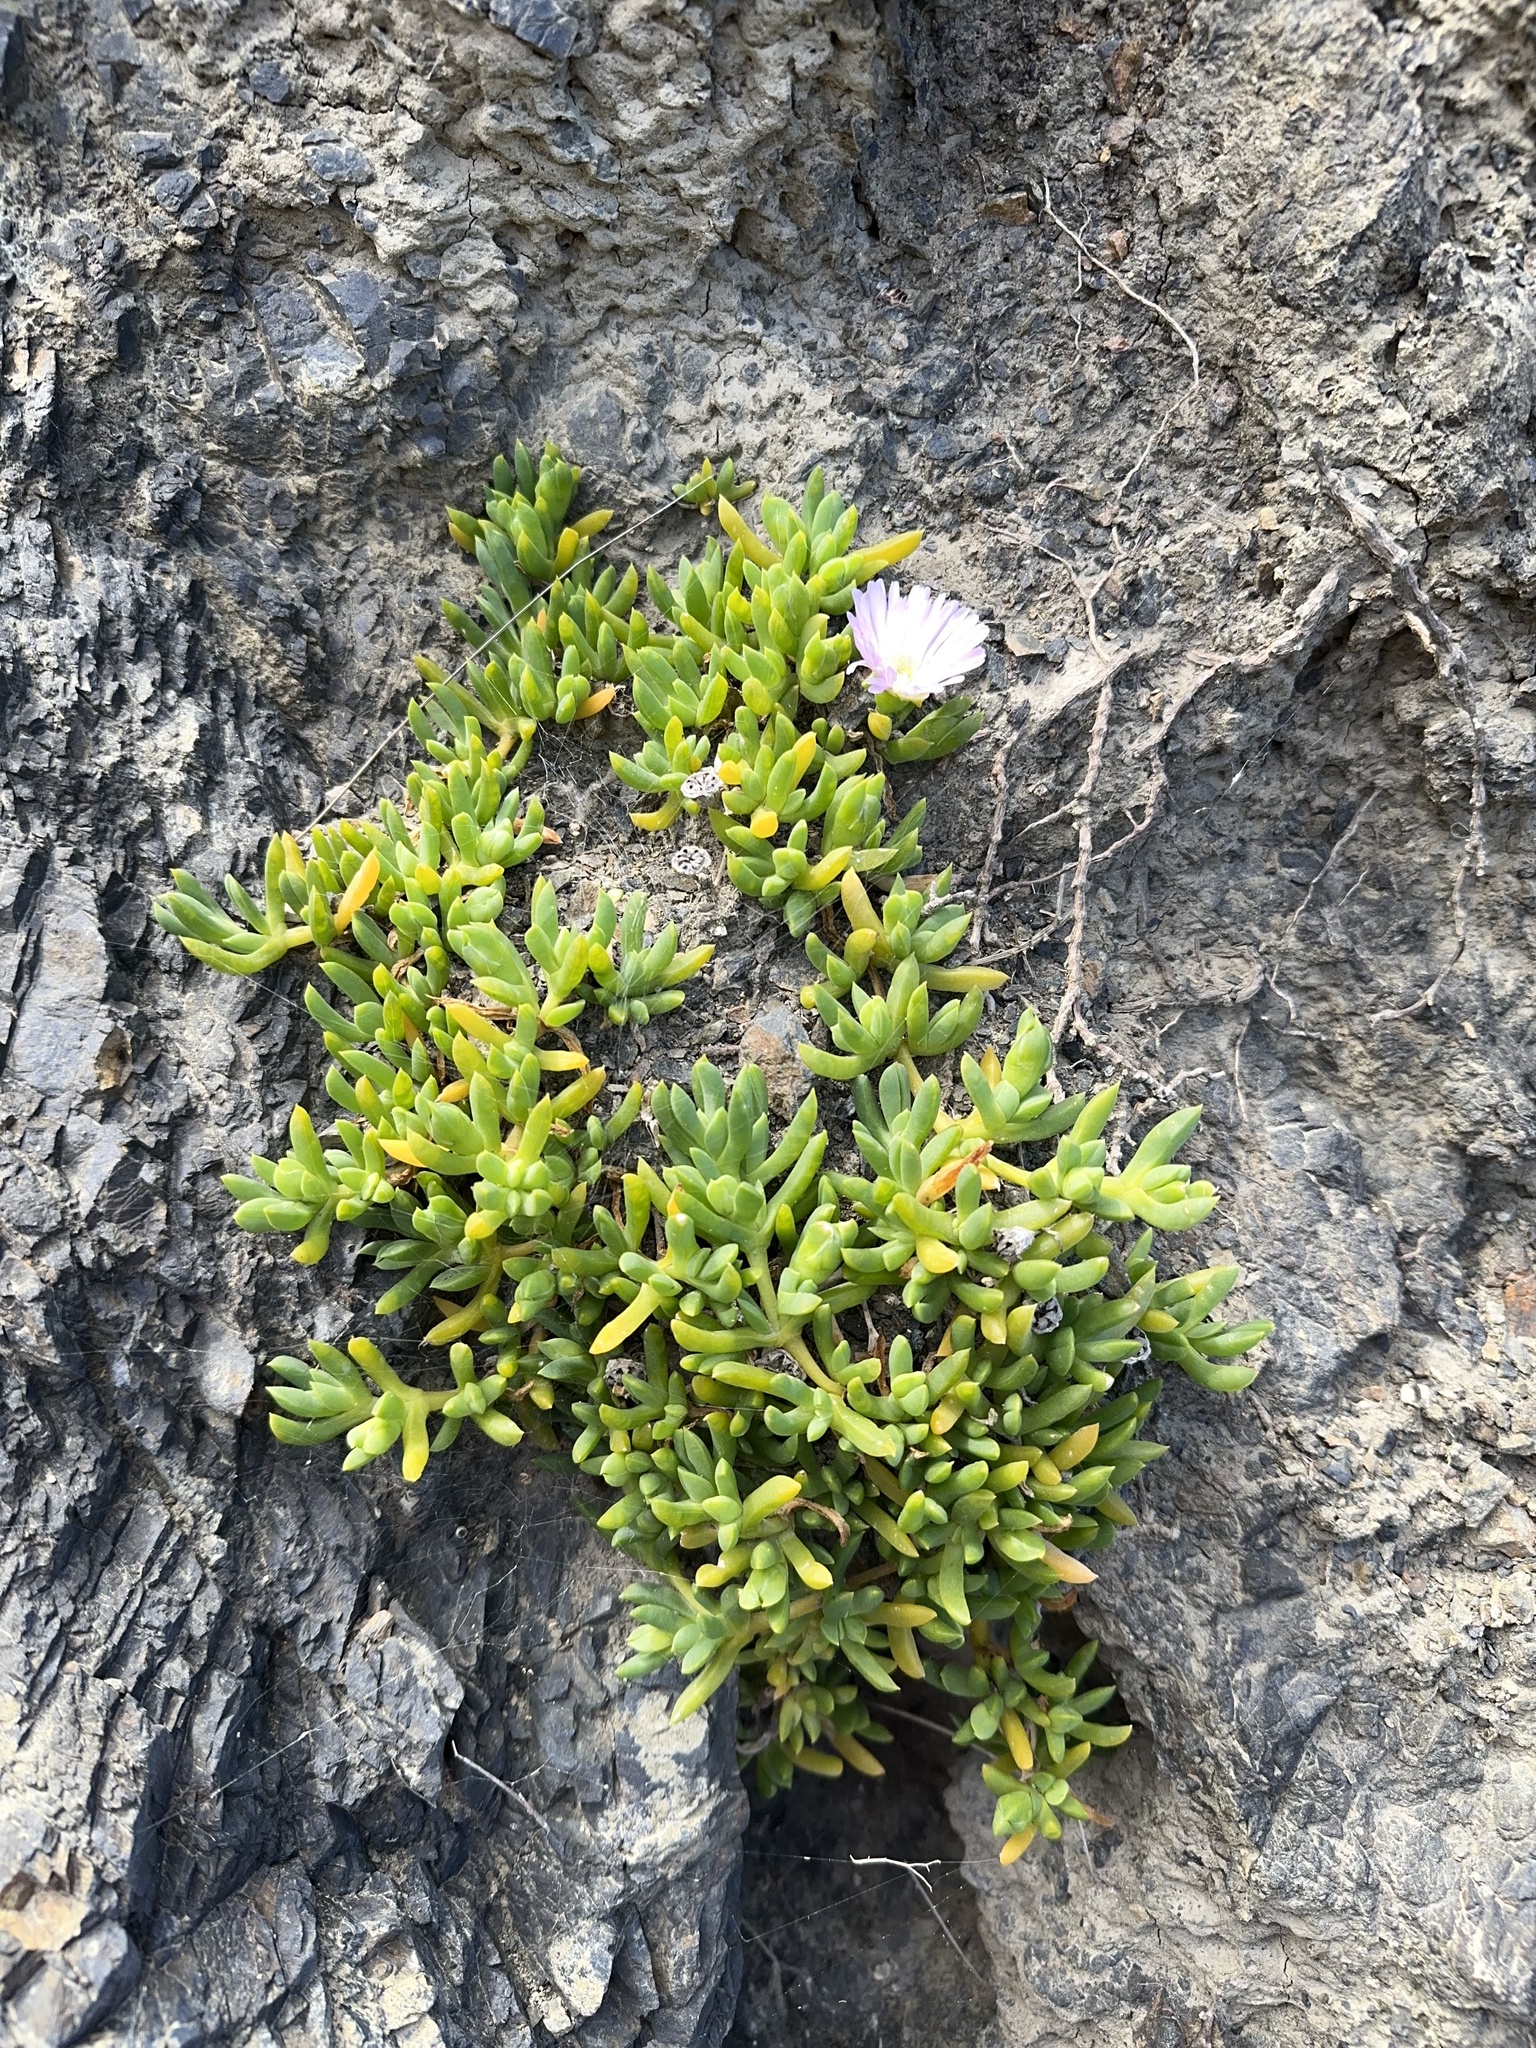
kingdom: Plantae
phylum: Tracheophyta
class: Magnoliopsida
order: Caryophyllales
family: Aizoaceae
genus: Disphyma
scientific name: Disphyma australe
